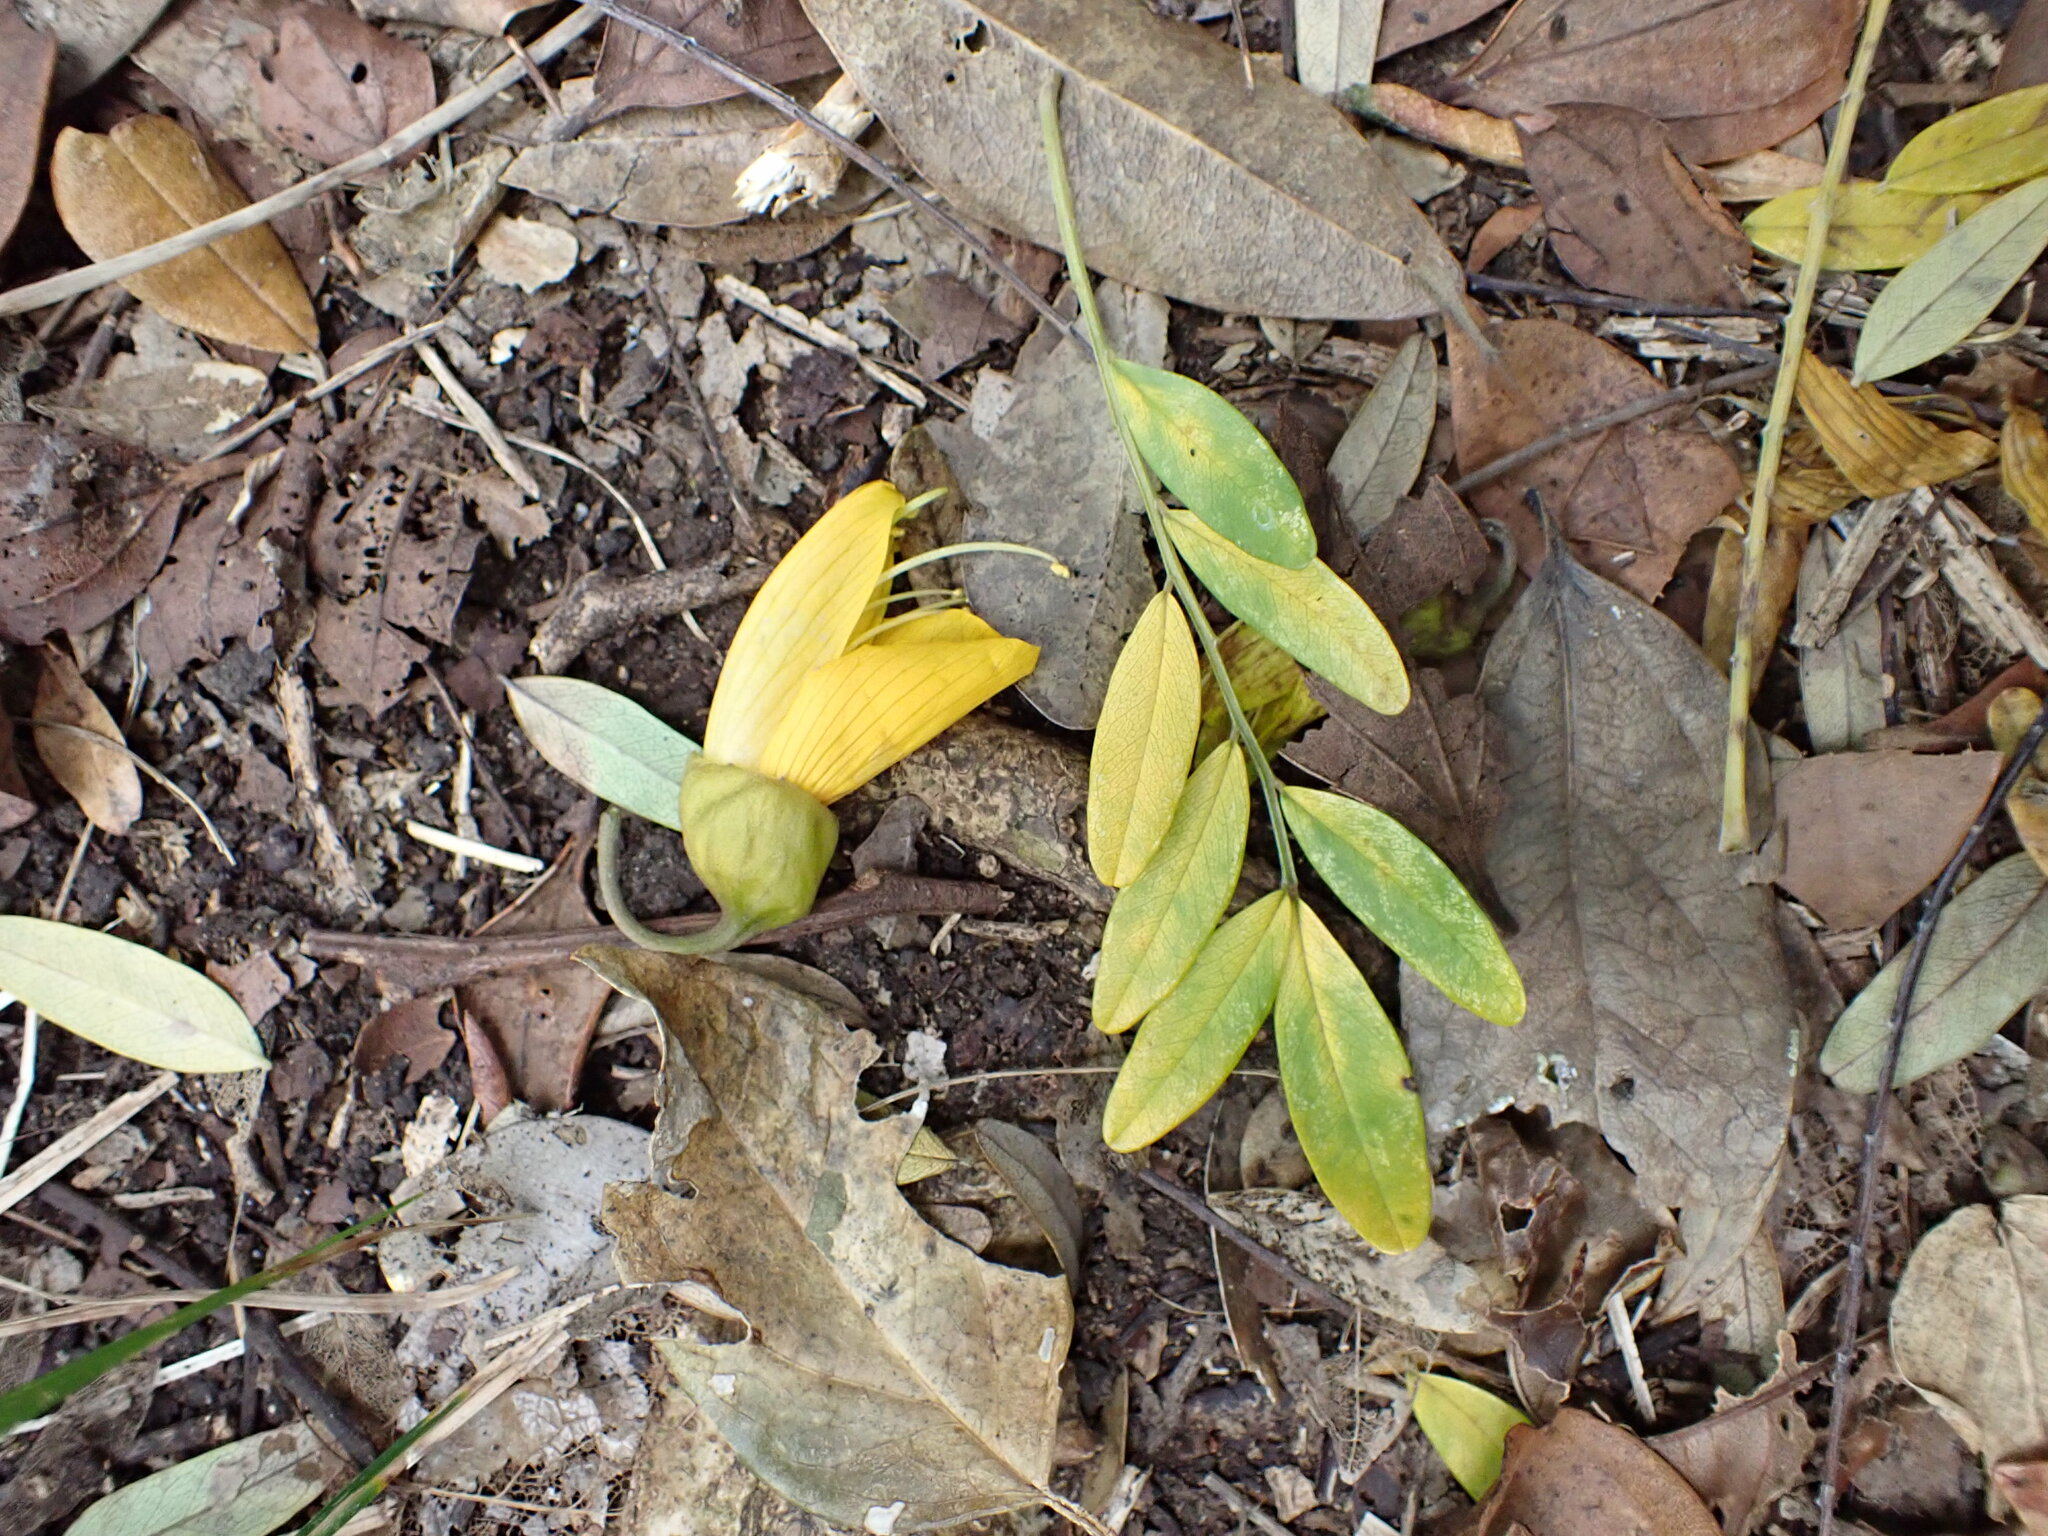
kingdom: Plantae
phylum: Tracheophyta
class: Magnoliopsida
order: Fabales
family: Fabaceae
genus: Sophora
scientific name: Sophora howinsula
